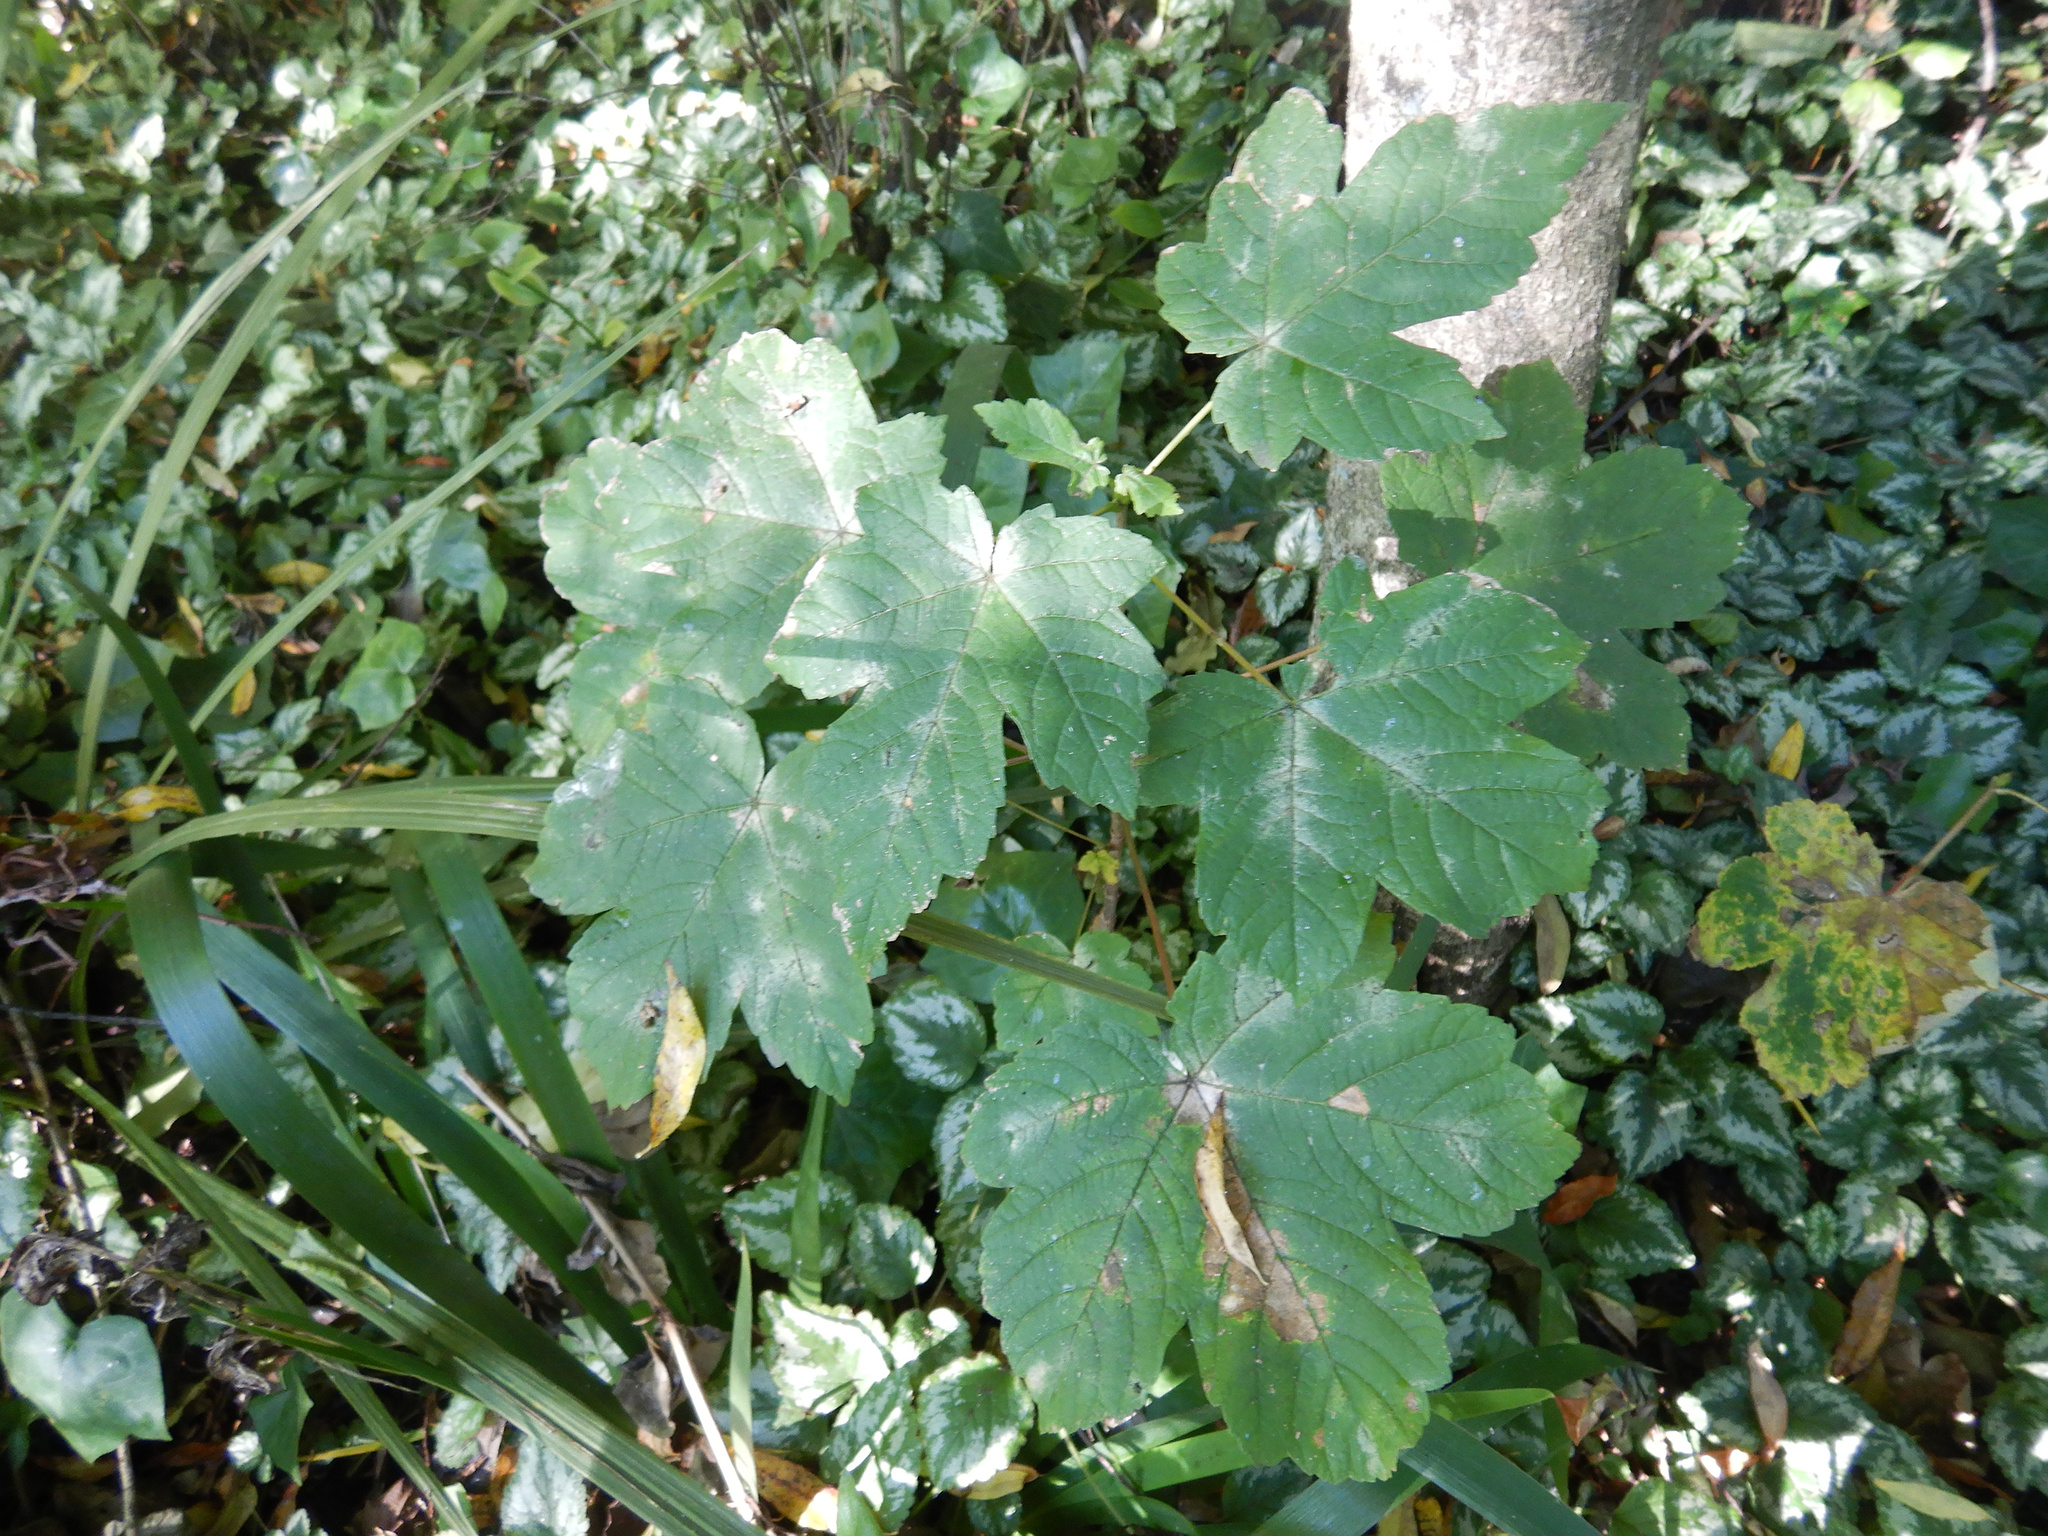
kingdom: Plantae
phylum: Tracheophyta
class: Magnoliopsida
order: Sapindales
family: Sapindaceae
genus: Acer
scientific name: Acer pseudoplatanus
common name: Sycamore
